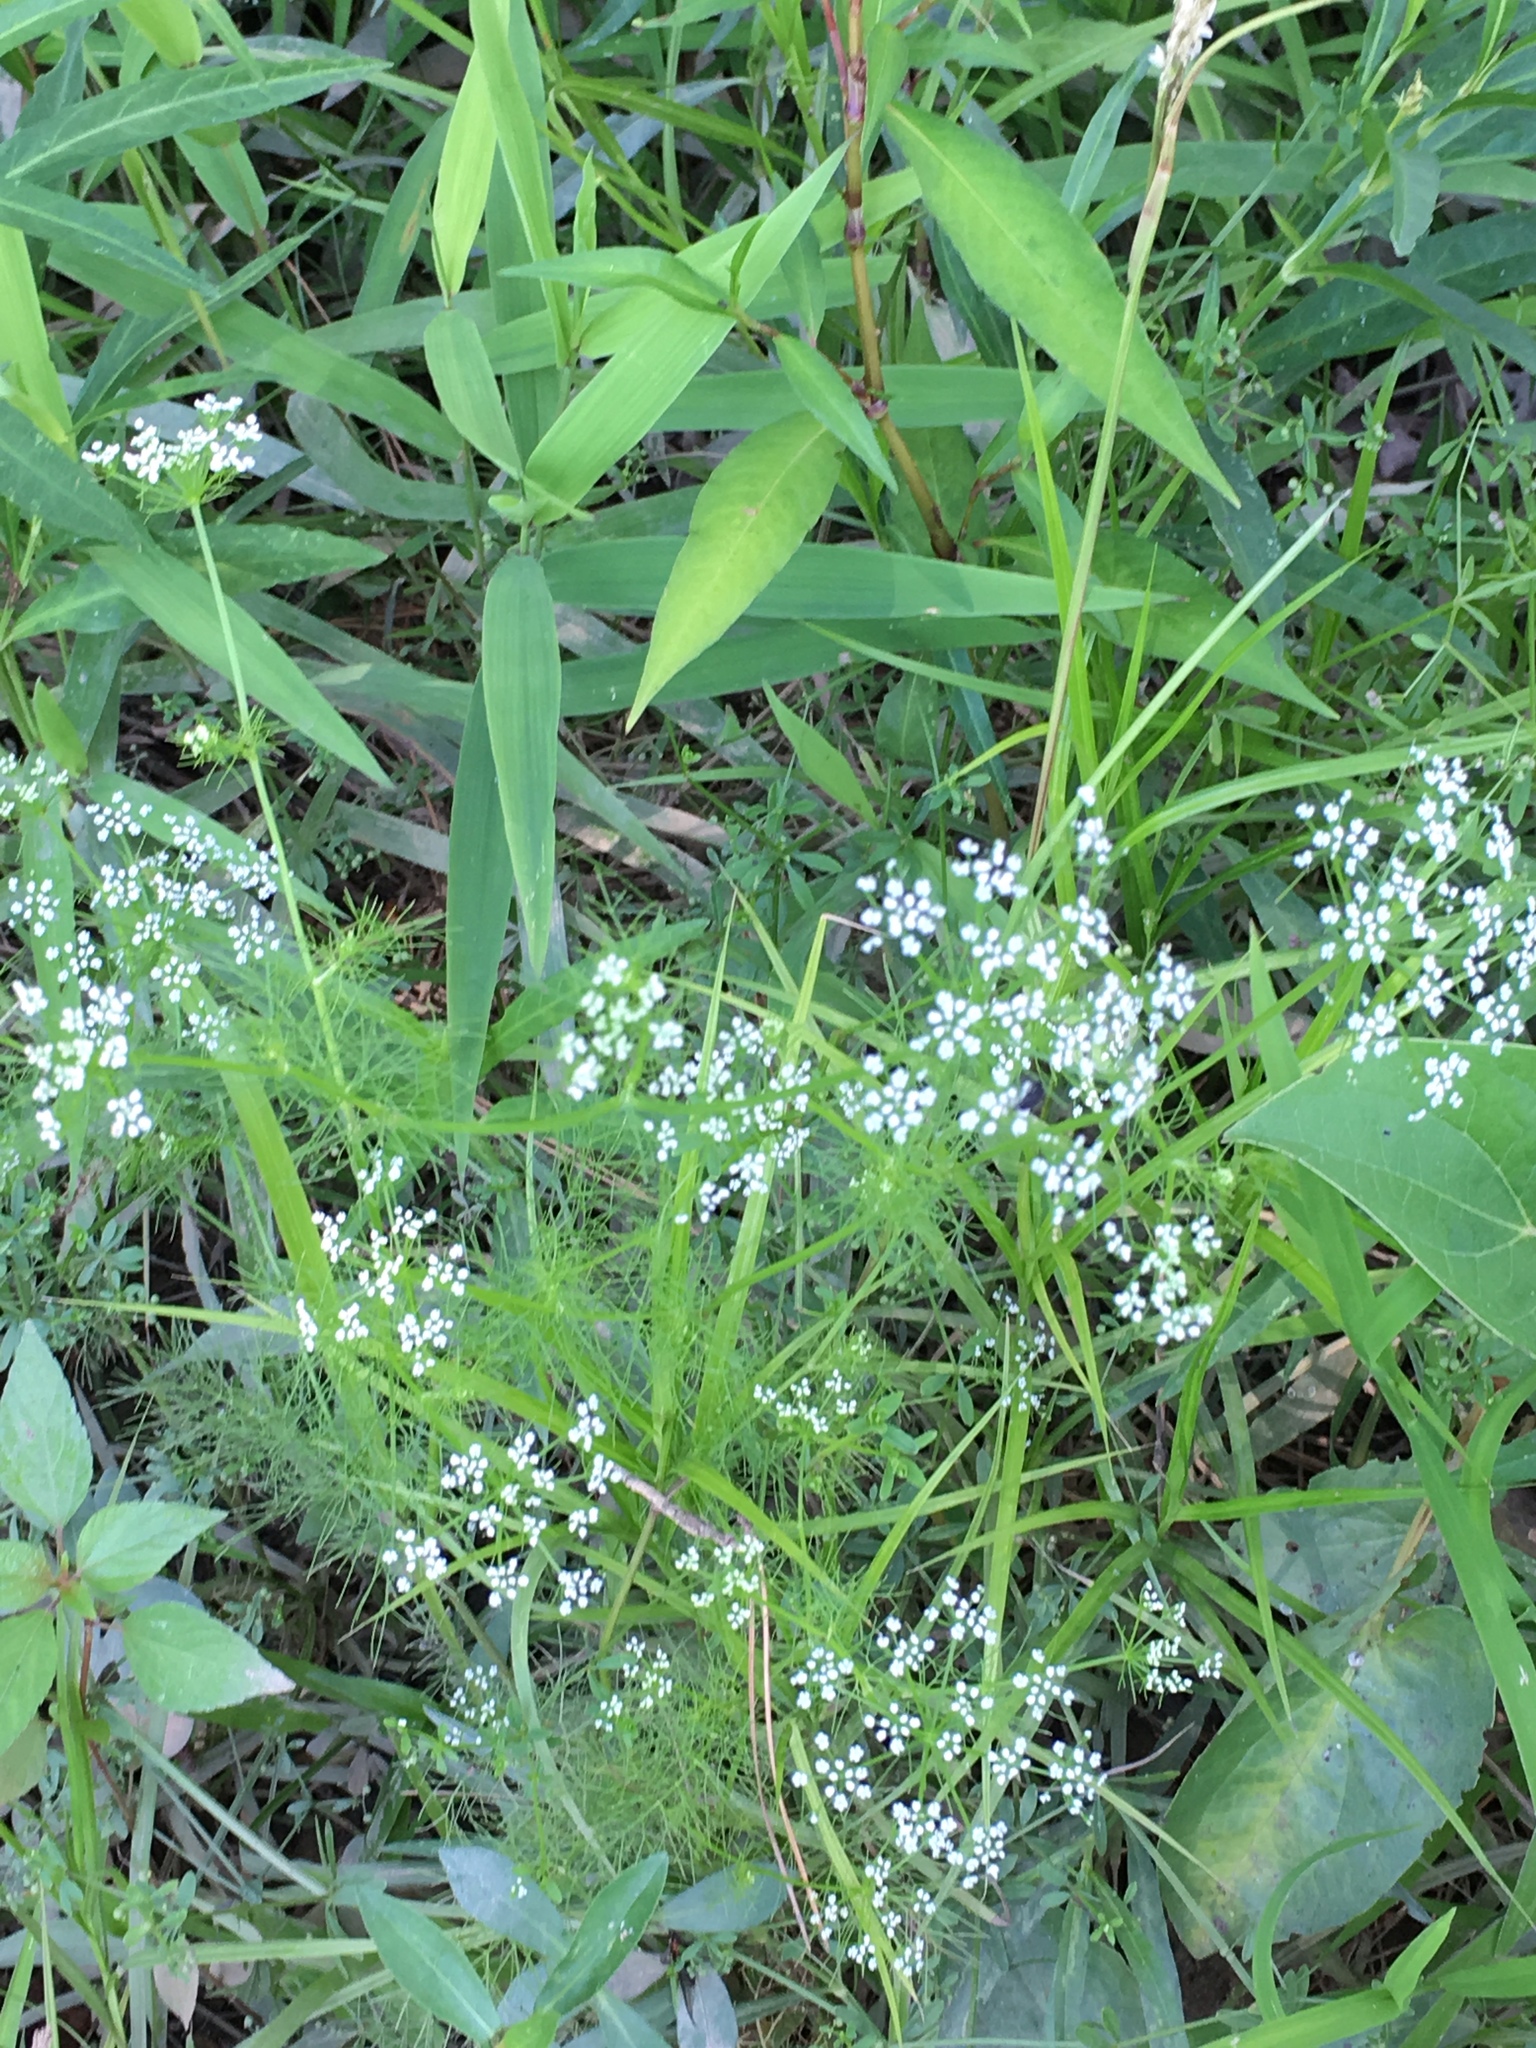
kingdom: Plantae
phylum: Tracheophyta
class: Magnoliopsida
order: Apiales
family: Apiaceae
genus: Ptilimnium
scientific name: Ptilimnium capillaceum
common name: Herbwilliam
